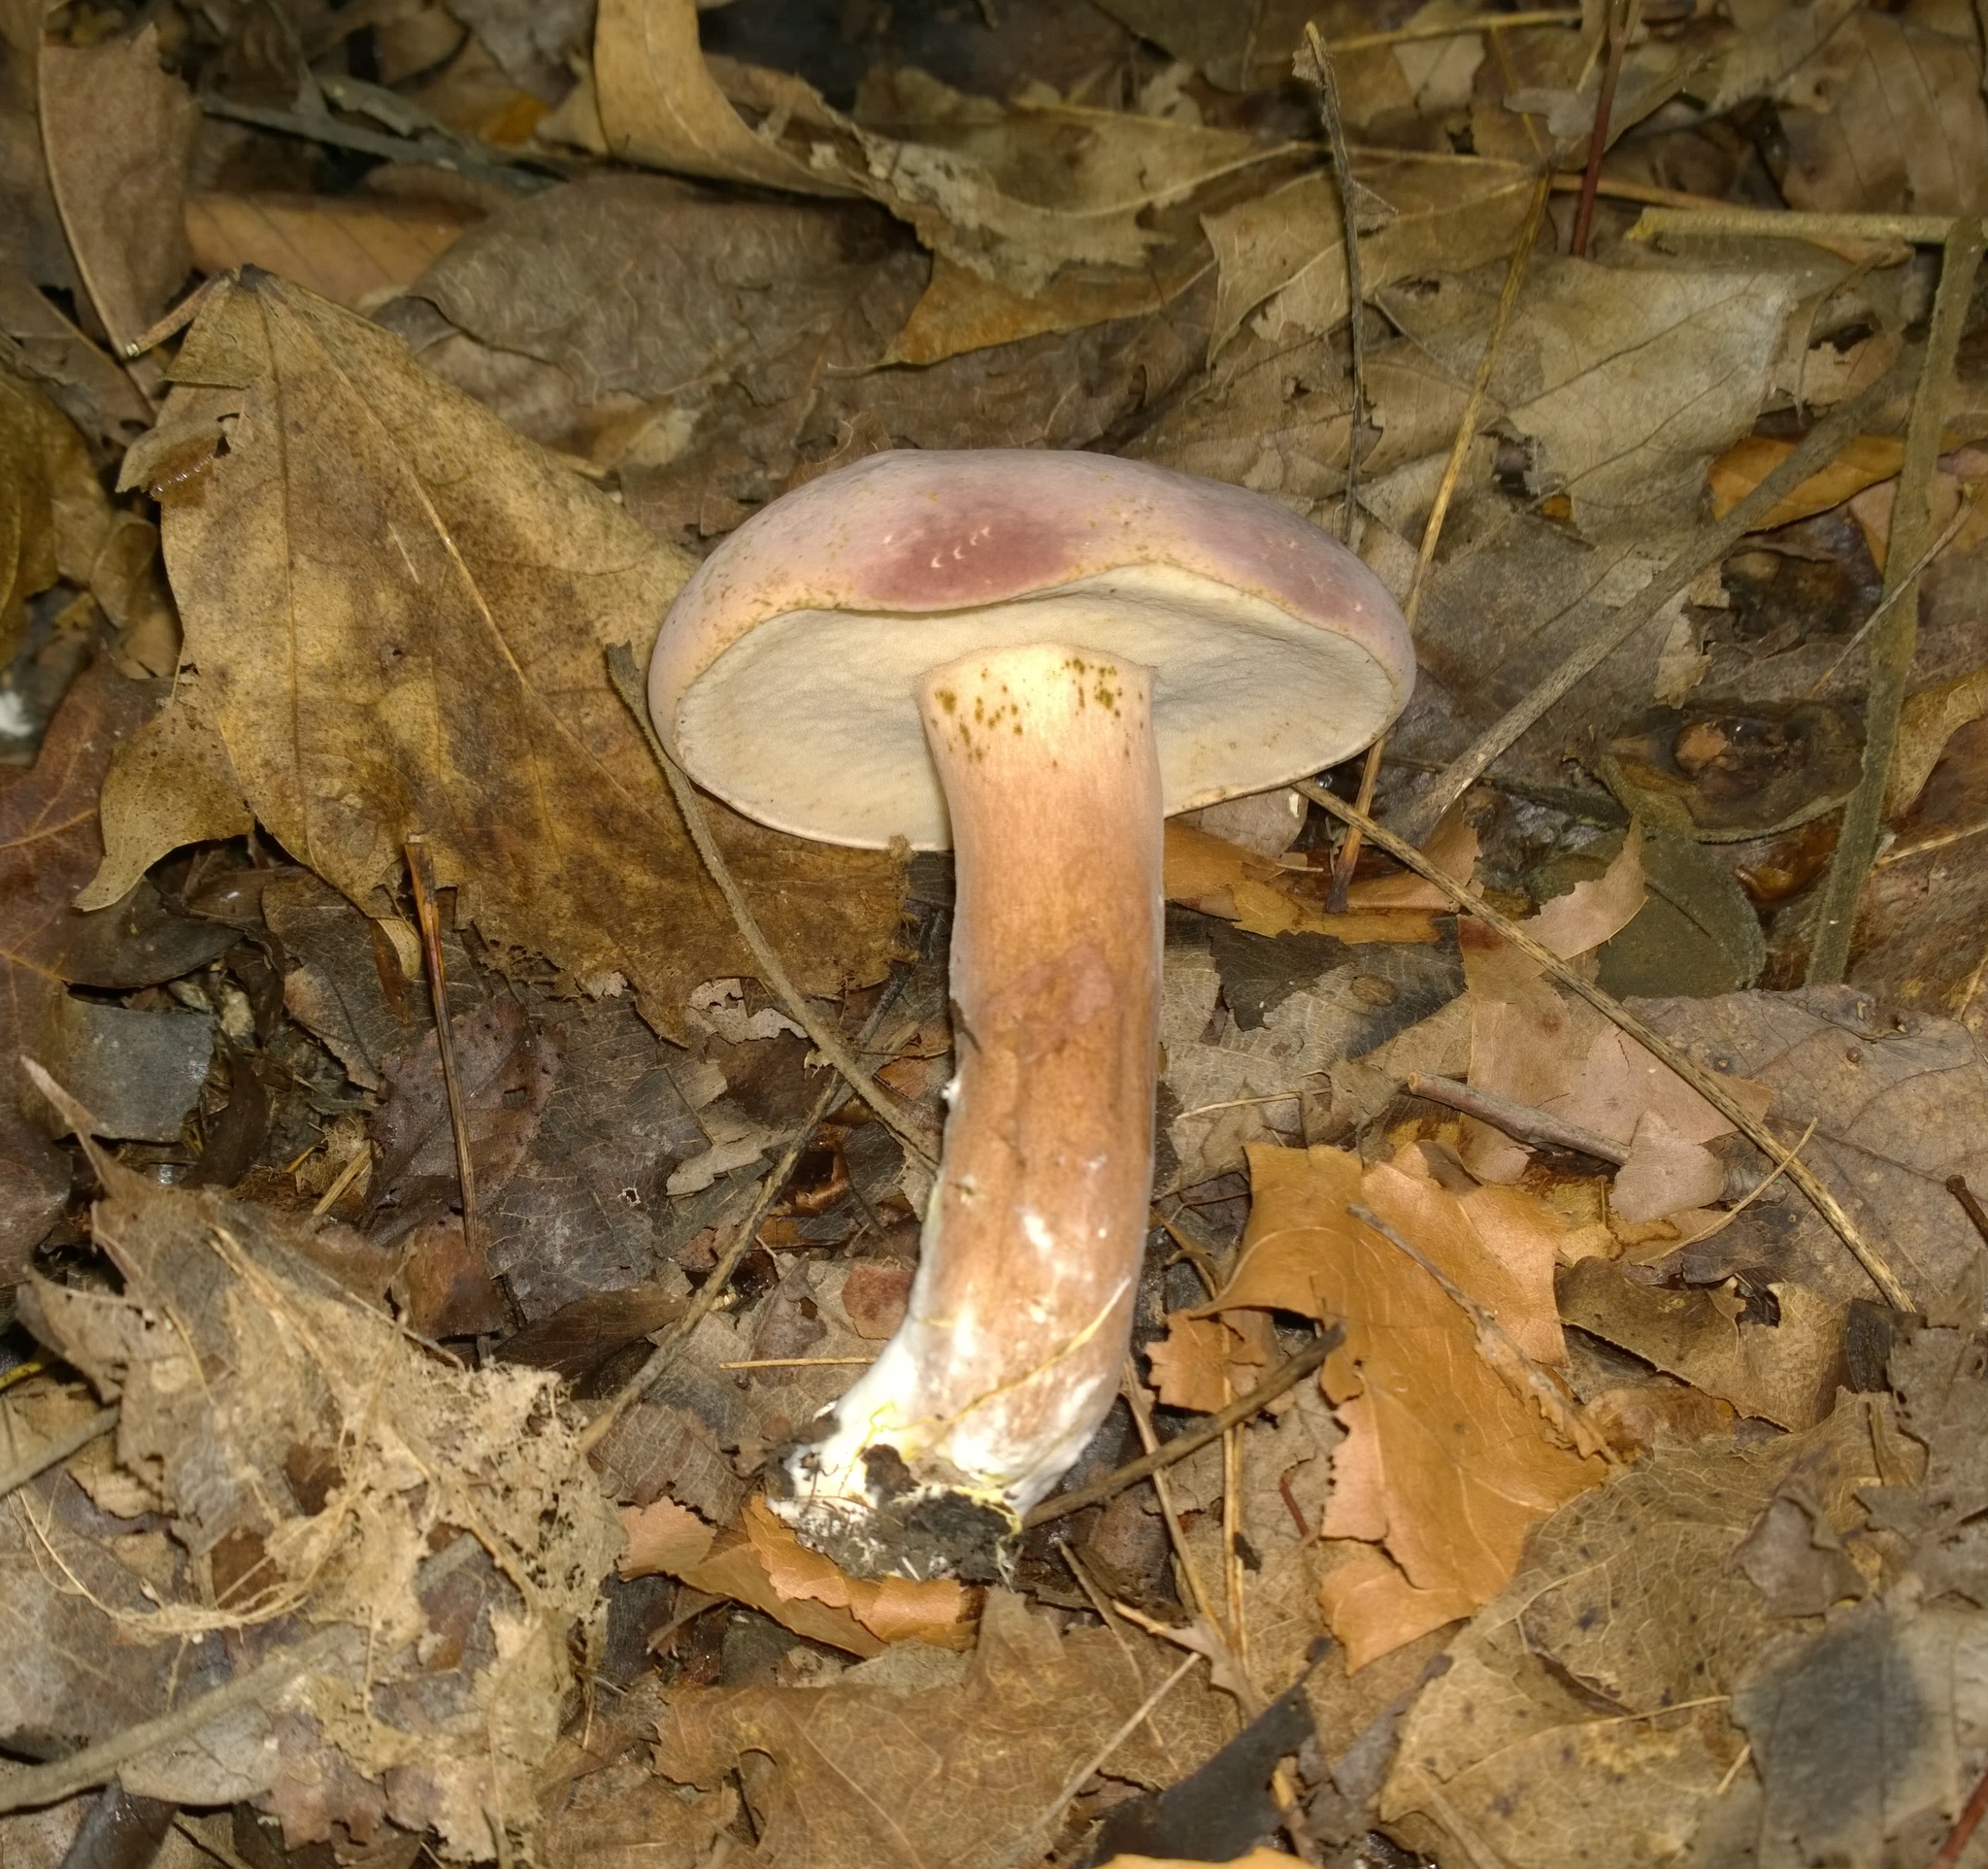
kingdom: Fungi
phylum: Basidiomycota
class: Agaricomycetes
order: Boletales
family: Boletaceae
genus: Tylopilus
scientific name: Tylopilus rubrobrunneus
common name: Reddish brown bitter bolete
